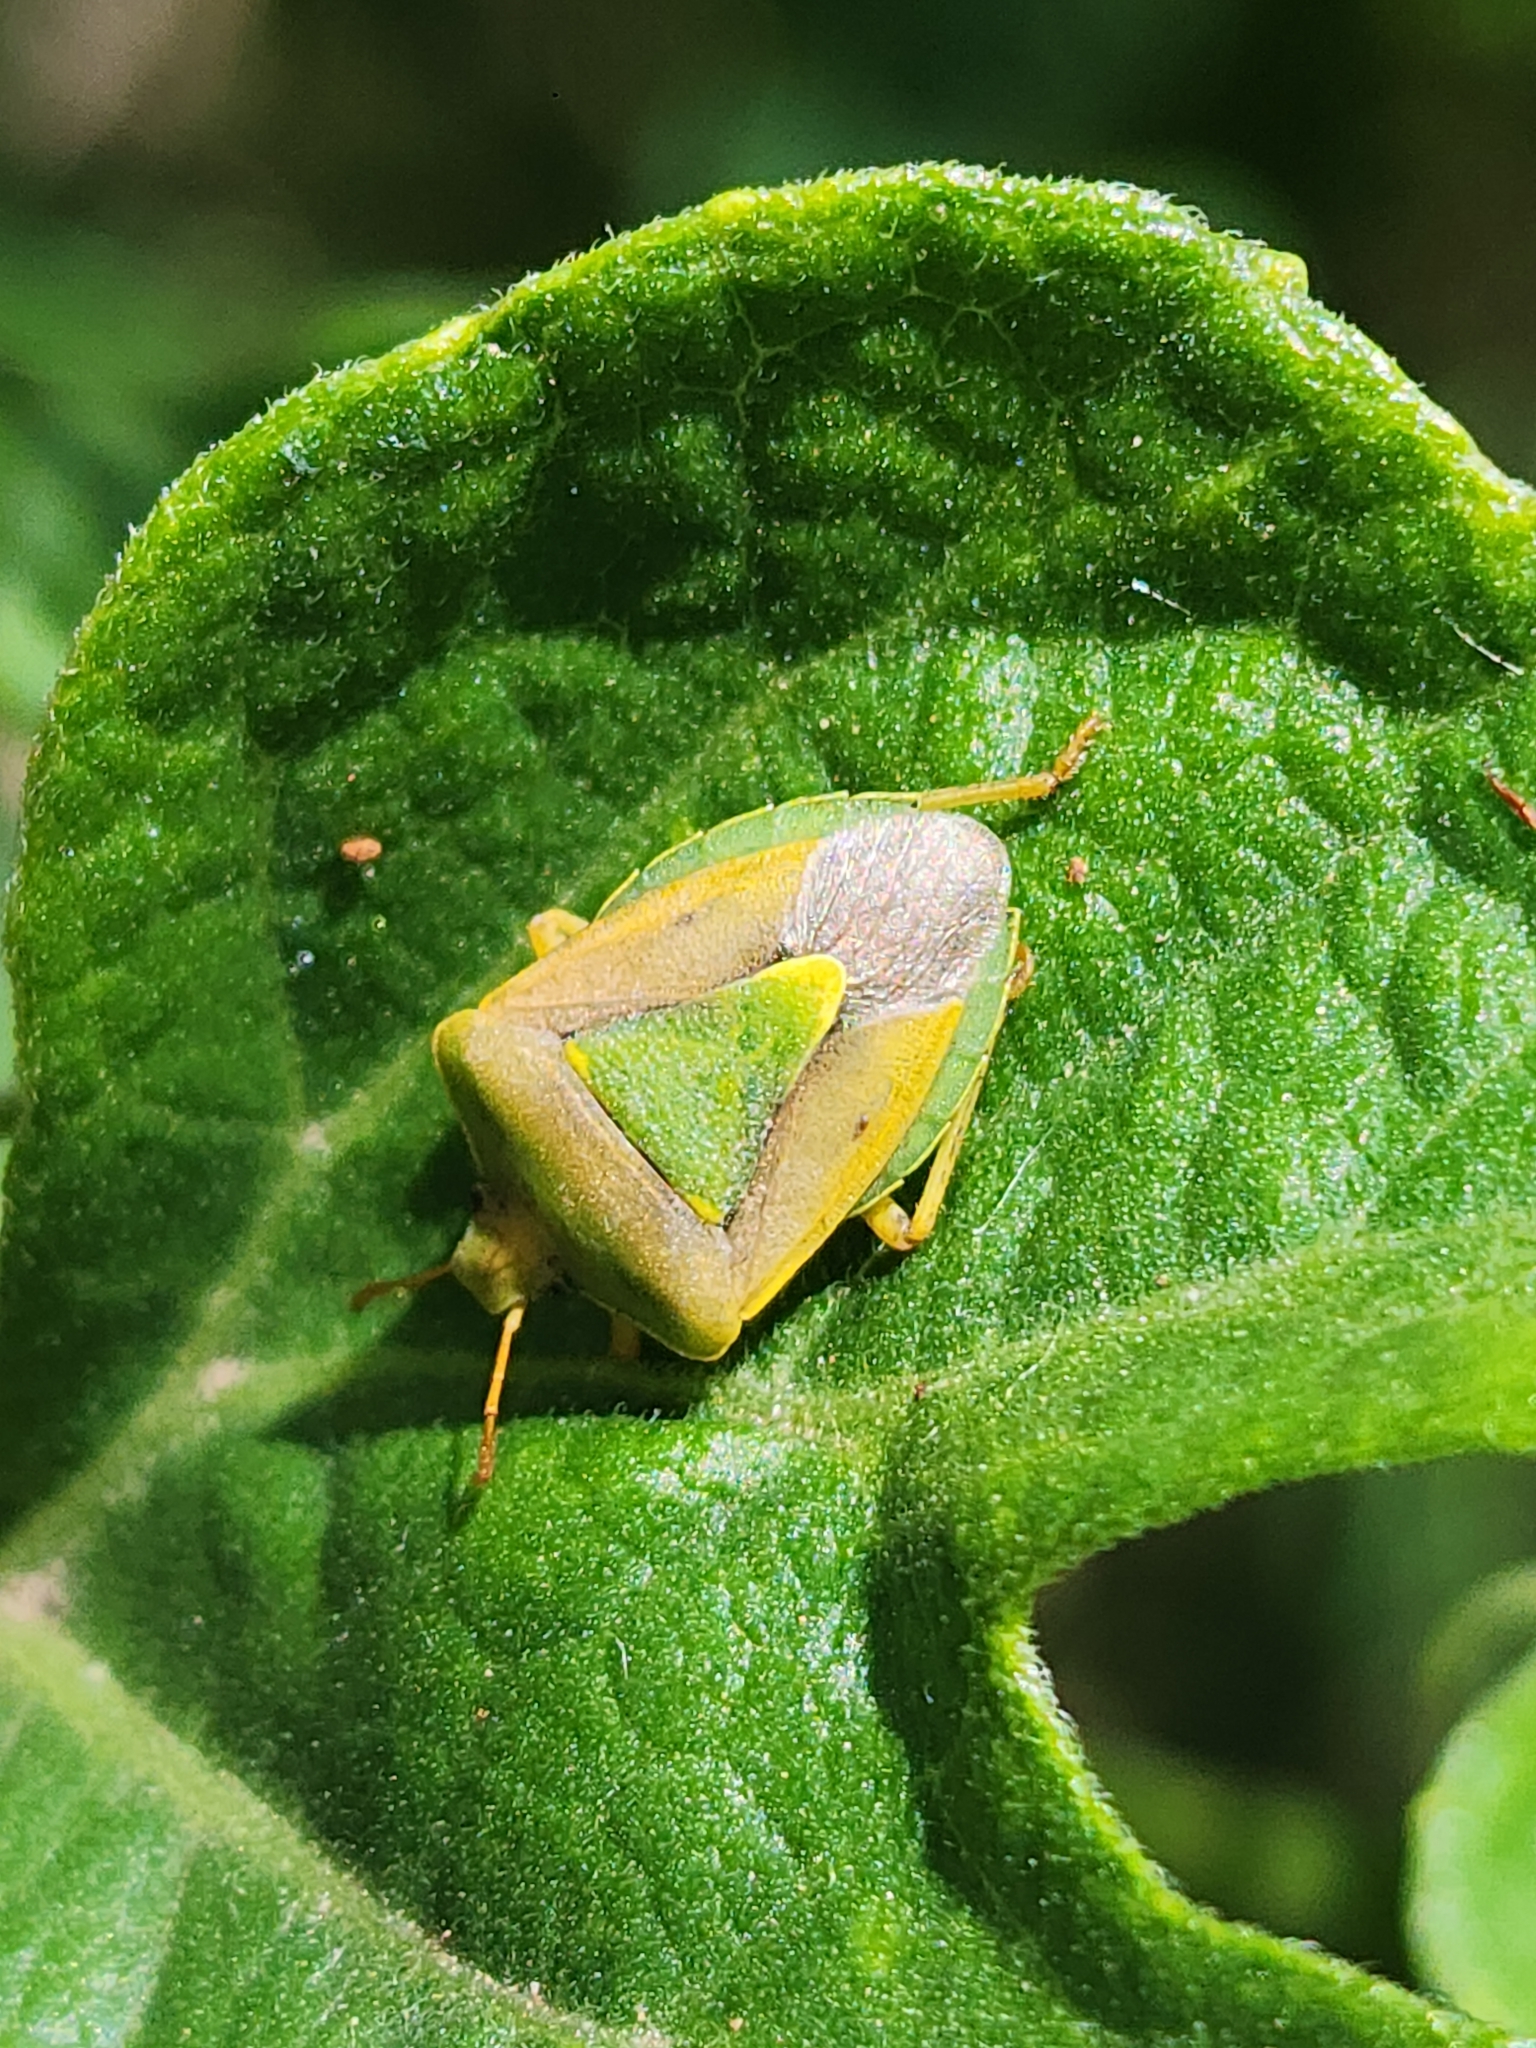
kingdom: Animalia
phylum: Arthropoda
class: Insecta
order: Hemiptera
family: Pentatomidae
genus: Acledra
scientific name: Acledra fraterna
